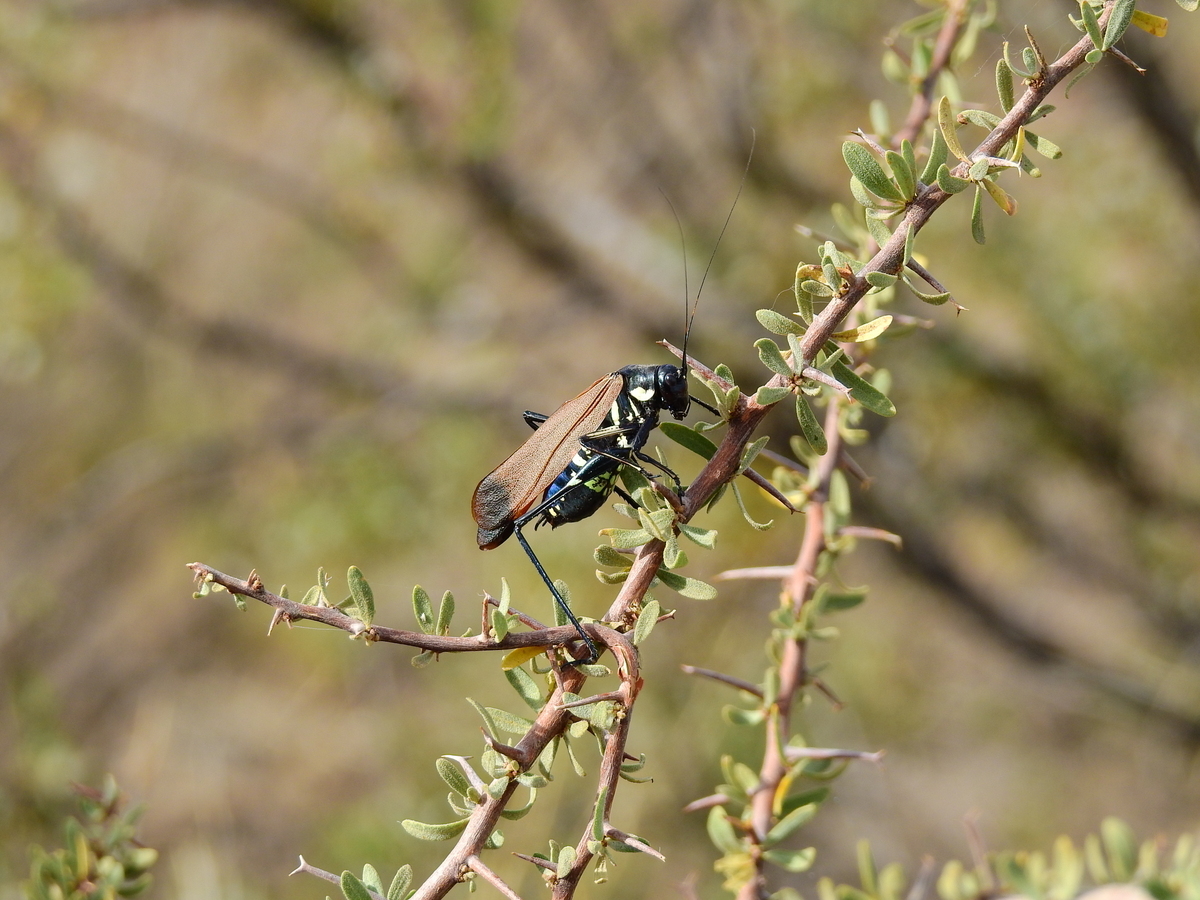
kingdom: Animalia
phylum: Arthropoda
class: Insecta
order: Orthoptera
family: Tettigoniidae
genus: Scaphura
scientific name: Scaphura elegans
